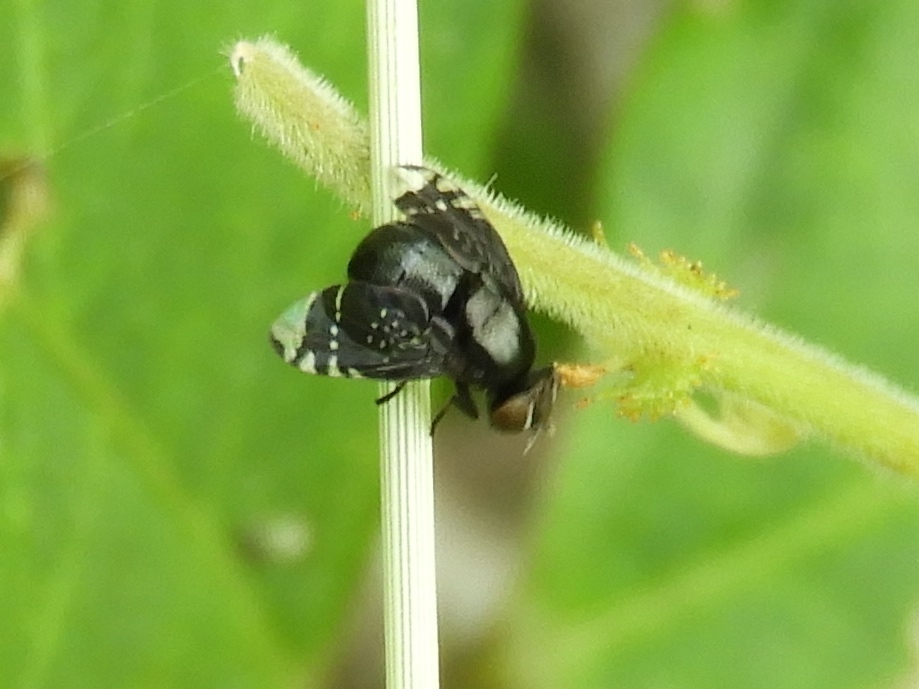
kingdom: Animalia
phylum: Arthropoda
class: Insecta
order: Diptera
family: Platystomatidae
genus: Amphicnephes
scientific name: Amphicnephes stellatus
